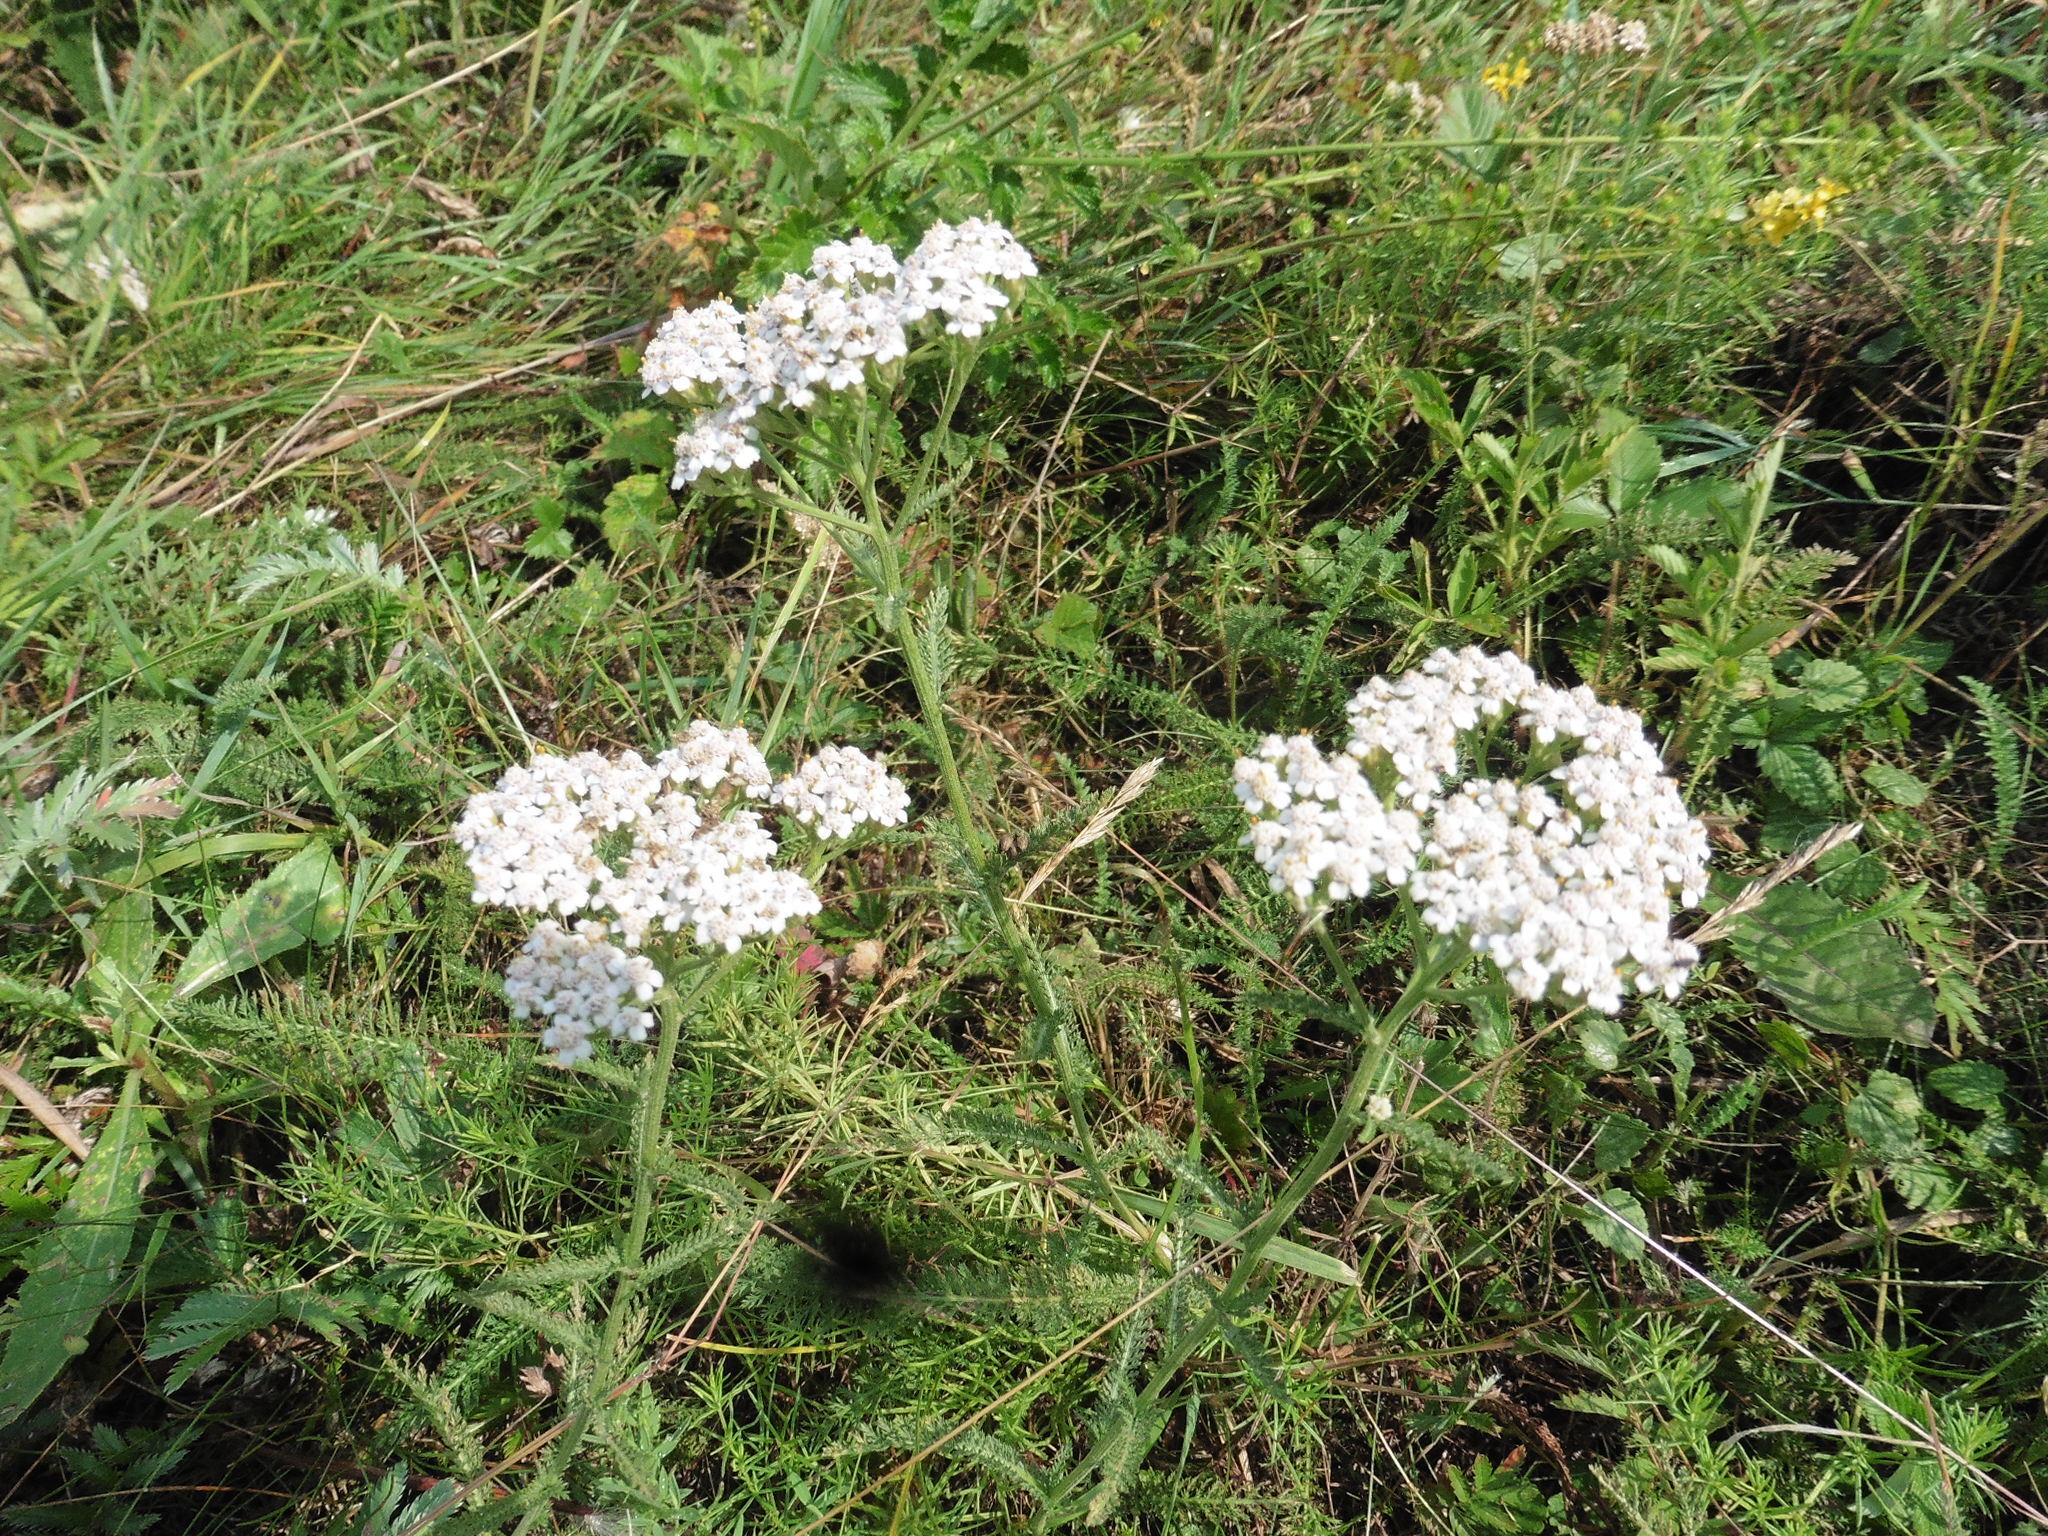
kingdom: Plantae
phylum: Tracheophyta
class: Magnoliopsida
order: Asterales
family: Asteraceae
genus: Achillea
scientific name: Achillea millefolium
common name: Yarrow
